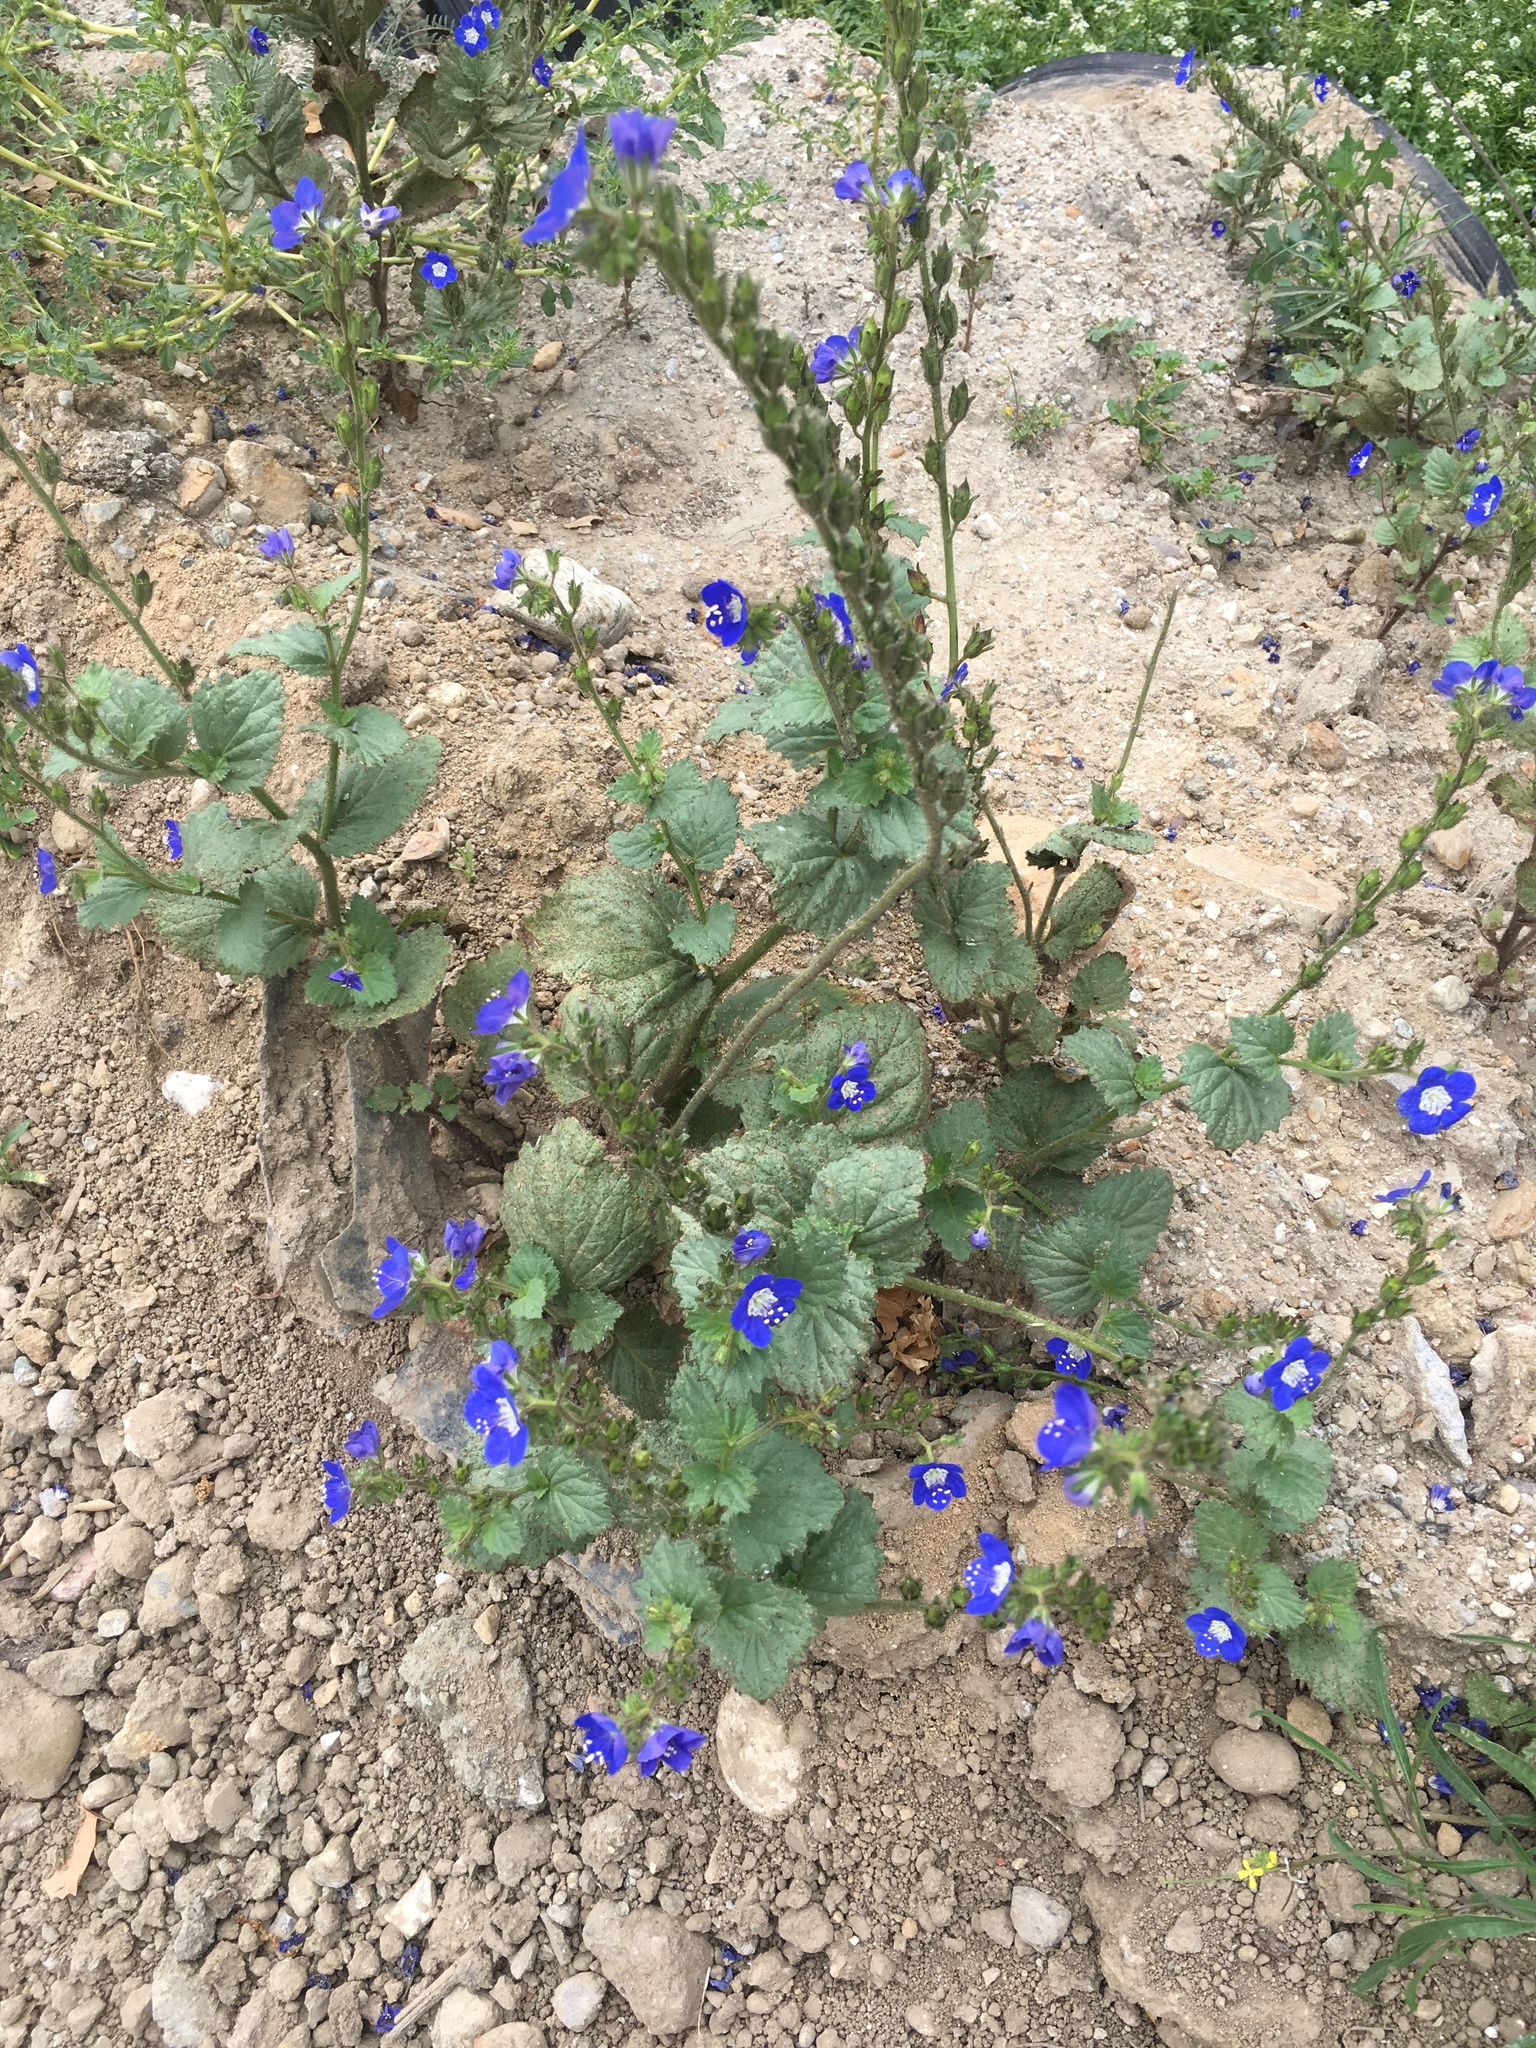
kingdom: Plantae
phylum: Tracheophyta
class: Magnoliopsida
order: Boraginales
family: Hydrophyllaceae
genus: Phacelia
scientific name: Phacelia viscida
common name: Sticky phacelia
